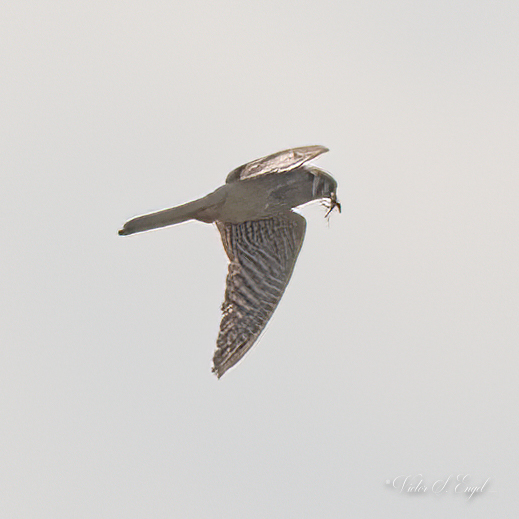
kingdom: Animalia
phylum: Chordata
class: Aves
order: Falconiformes
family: Falconidae
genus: Falco
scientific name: Falco sparverius
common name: American kestrel
